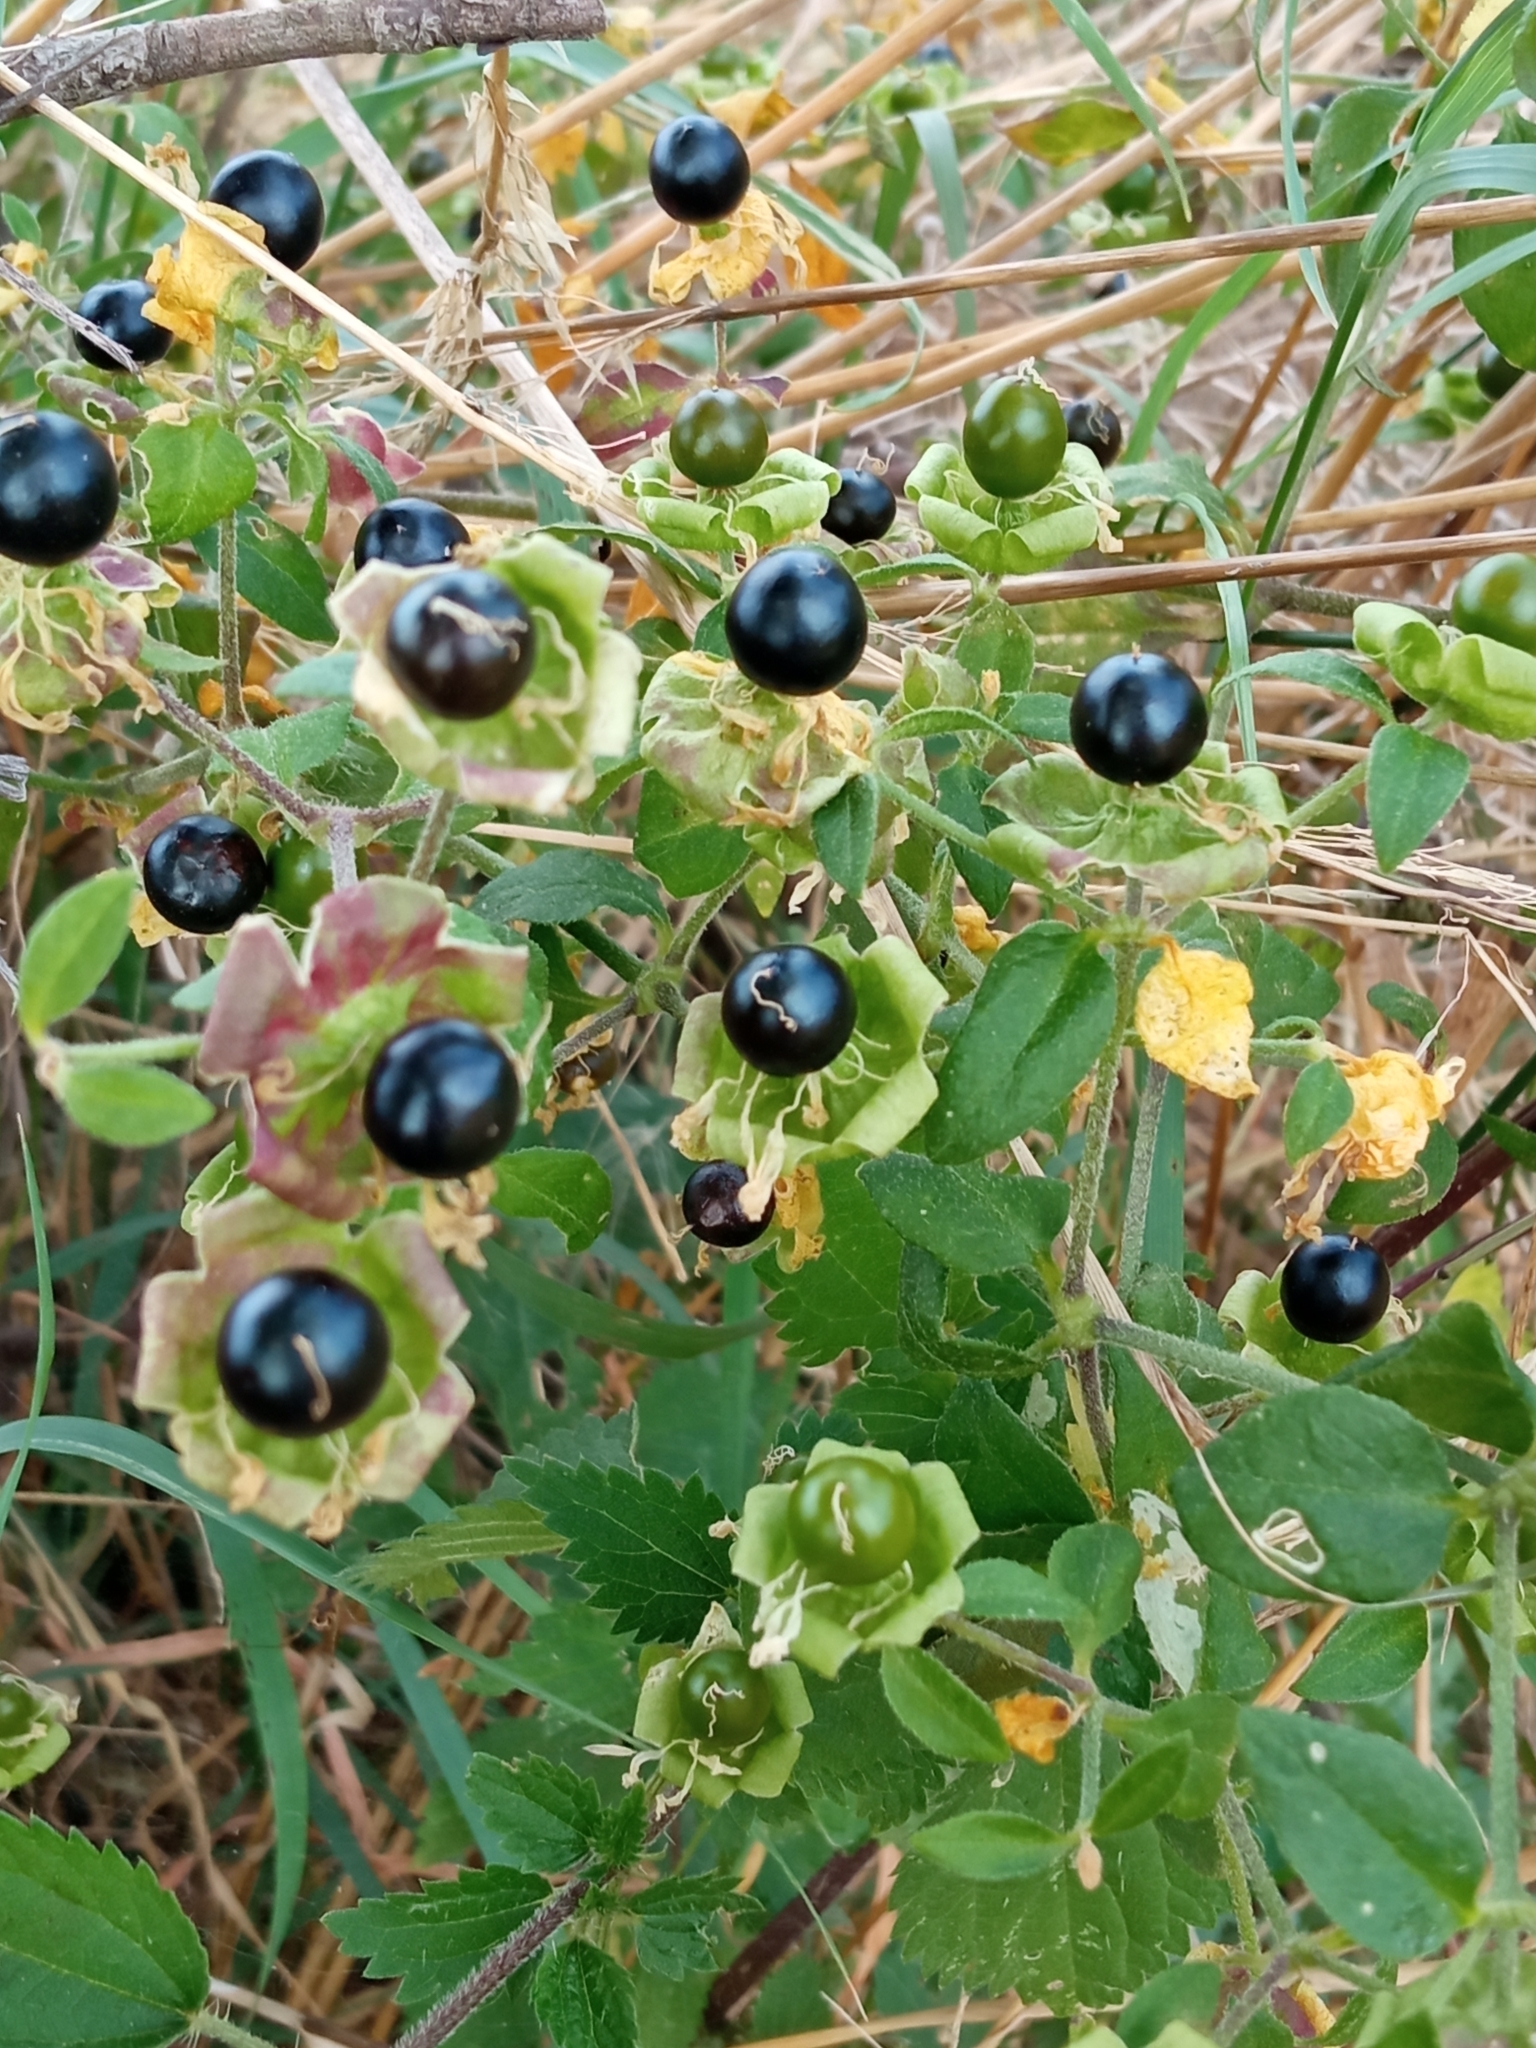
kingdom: Plantae
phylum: Tracheophyta
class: Magnoliopsida
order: Caryophyllales
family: Caryophyllaceae
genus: Silene
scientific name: Silene baccifera
